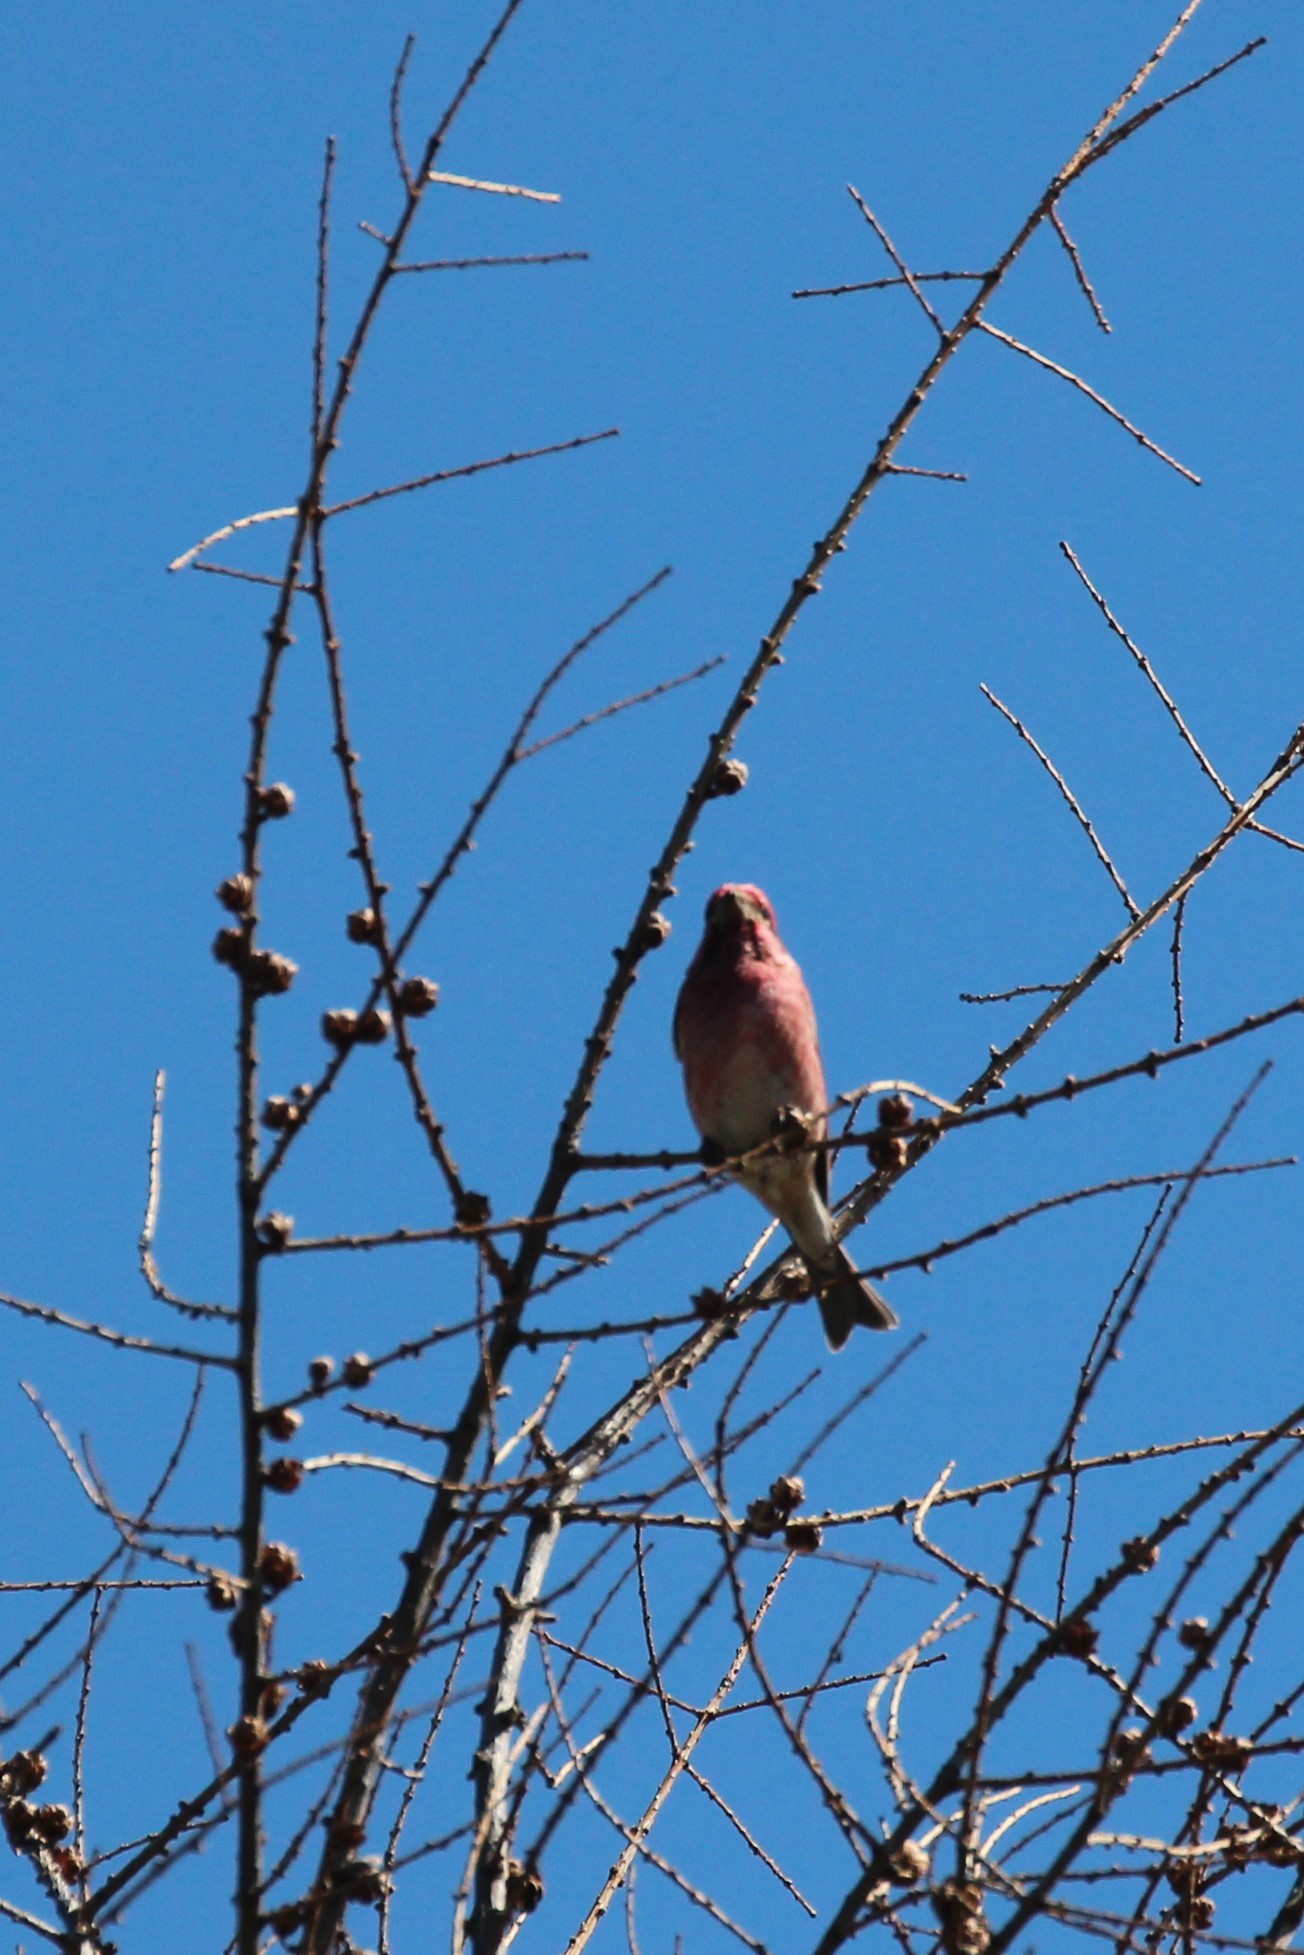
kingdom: Animalia
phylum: Chordata
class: Aves
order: Passeriformes
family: Fringillidae
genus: Haemorhous
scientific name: Haemorhous purpureus
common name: Purple finch
